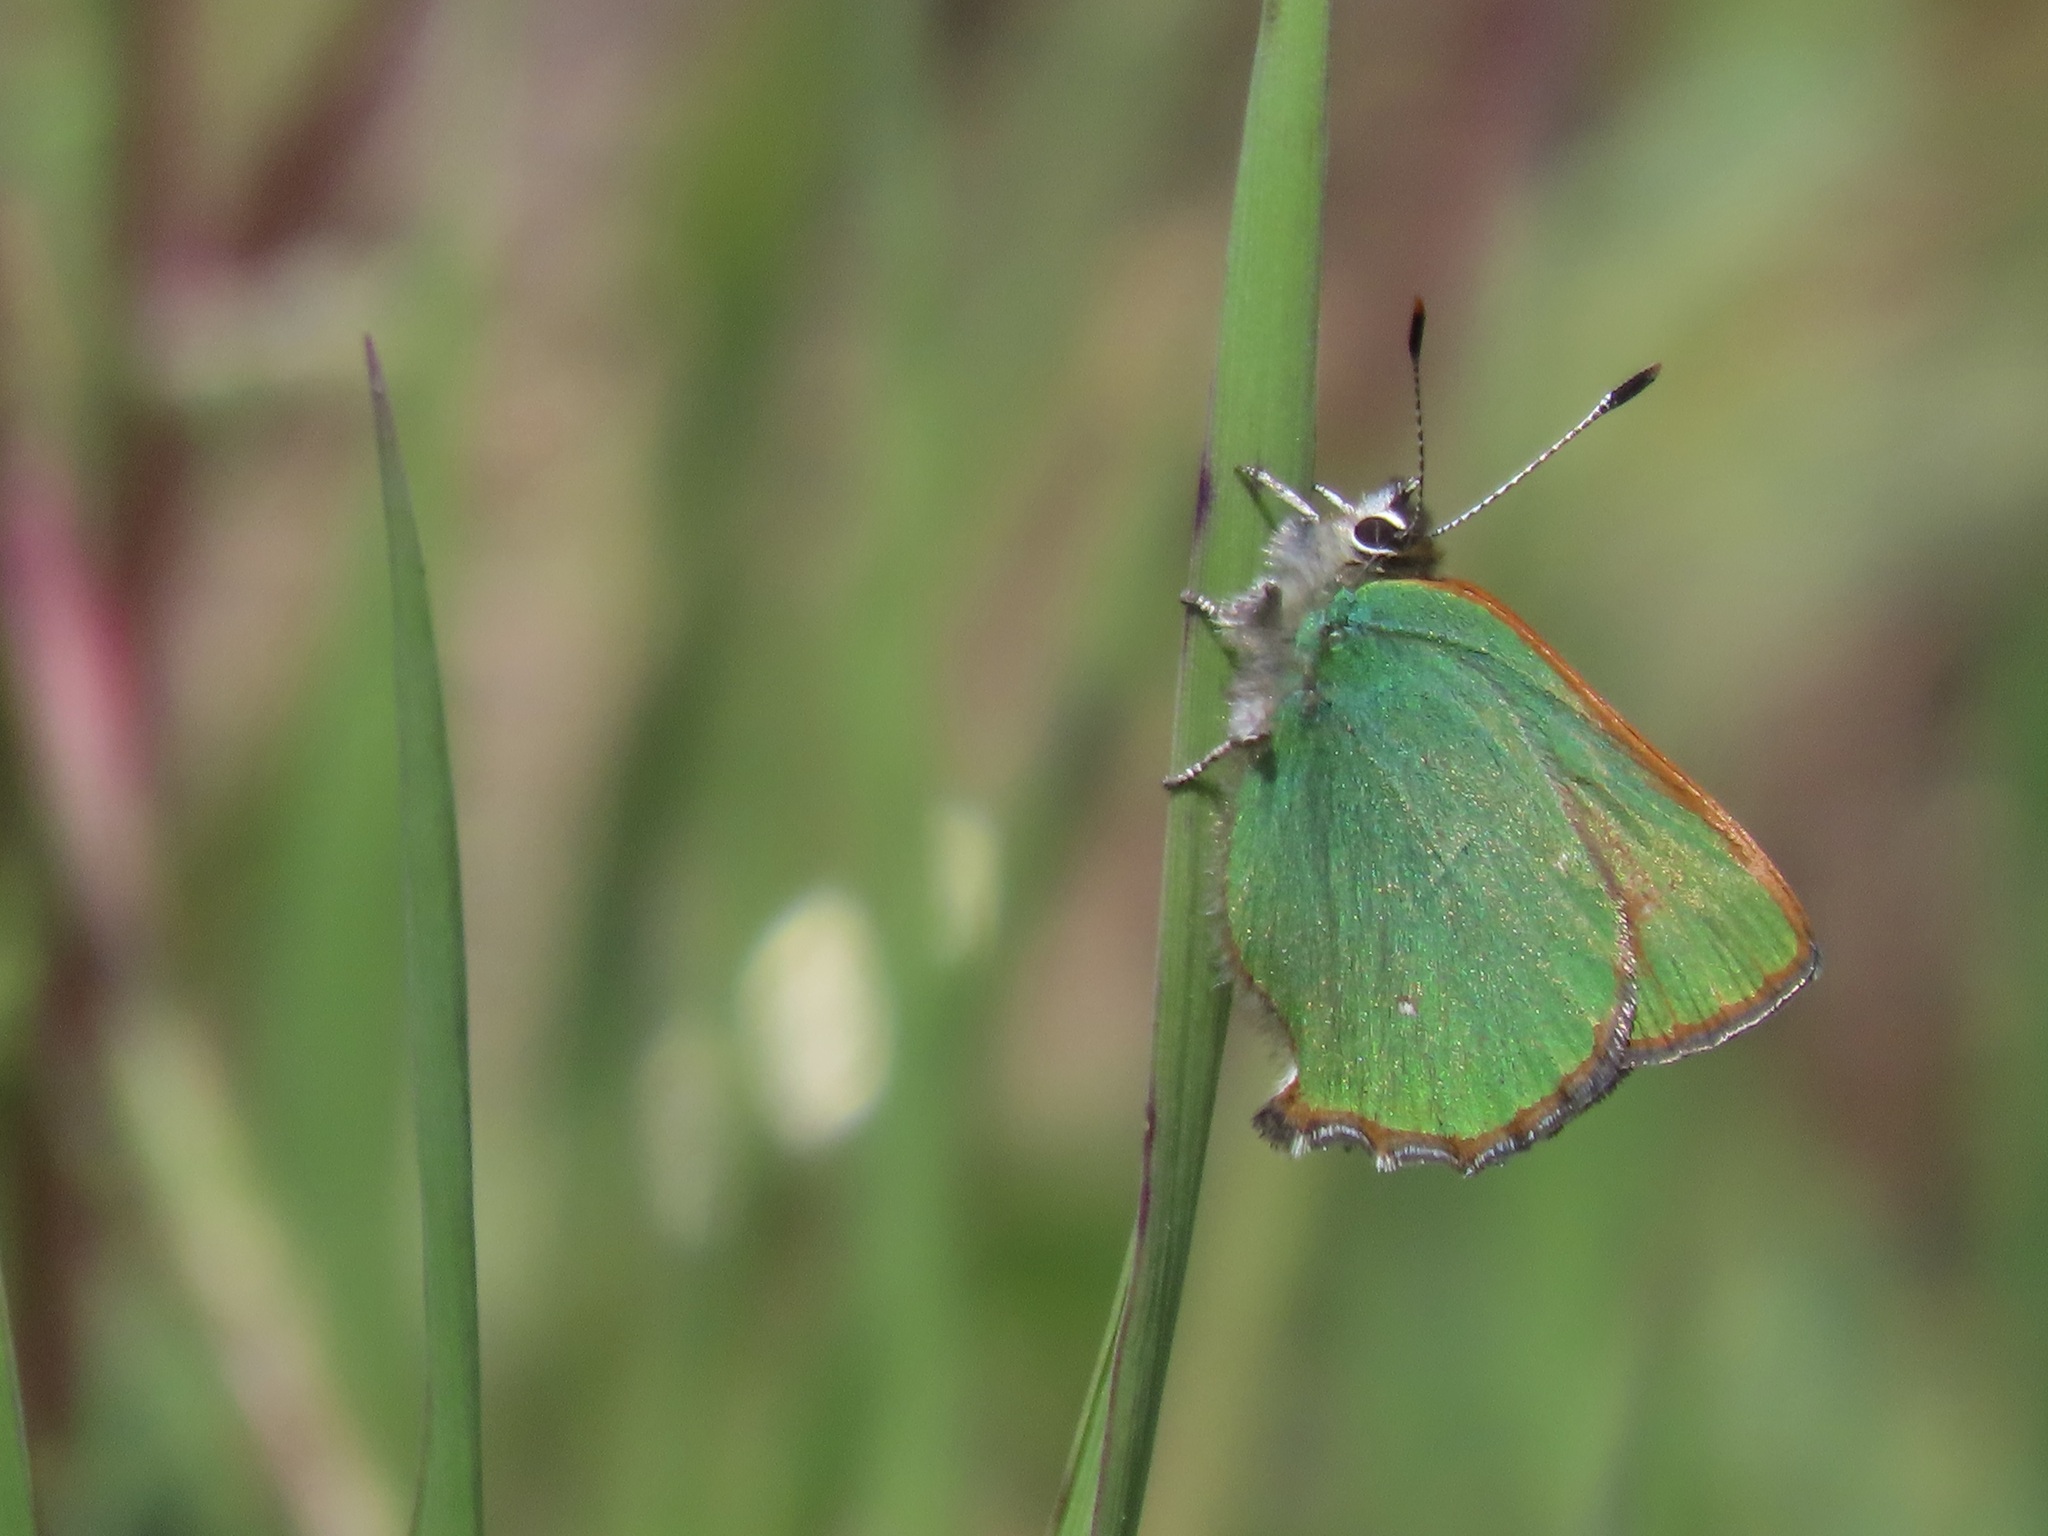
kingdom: Animalia
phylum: Arthropoda
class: Insecta
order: Lepidoptera
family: Lycaenidae
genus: Callophrys
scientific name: Callophrys dumetorum
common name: Bramble hairstreak
